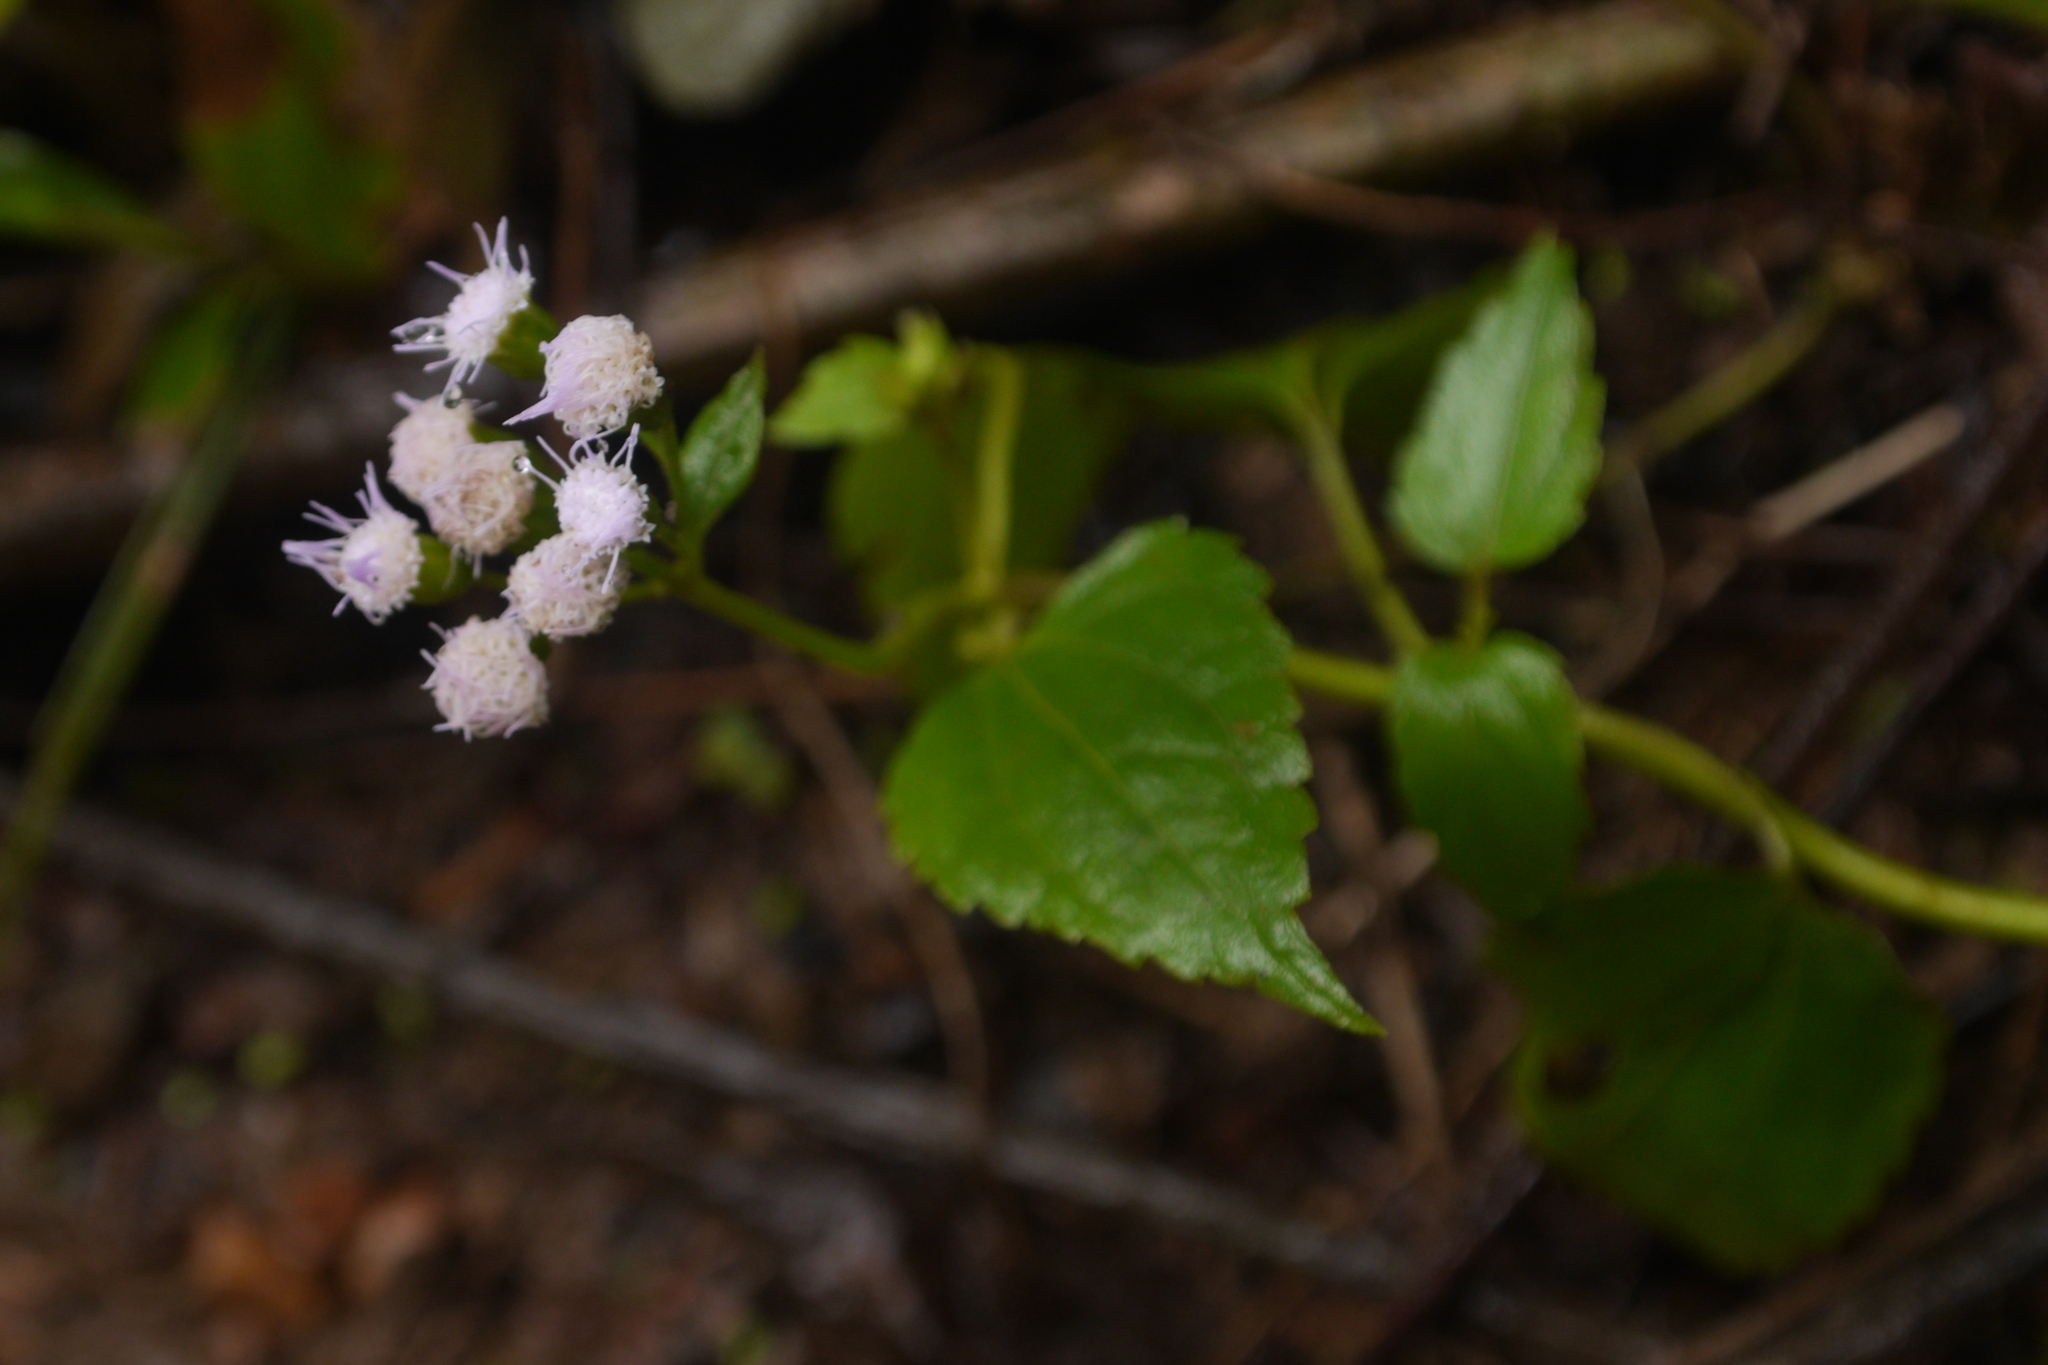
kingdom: Plantae
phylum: Tracheophyta
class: Magnoliopsida
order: Asterales
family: Asteraceae
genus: Ageratum
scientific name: Ageratum conyzoides
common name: Tropical whiteweed
